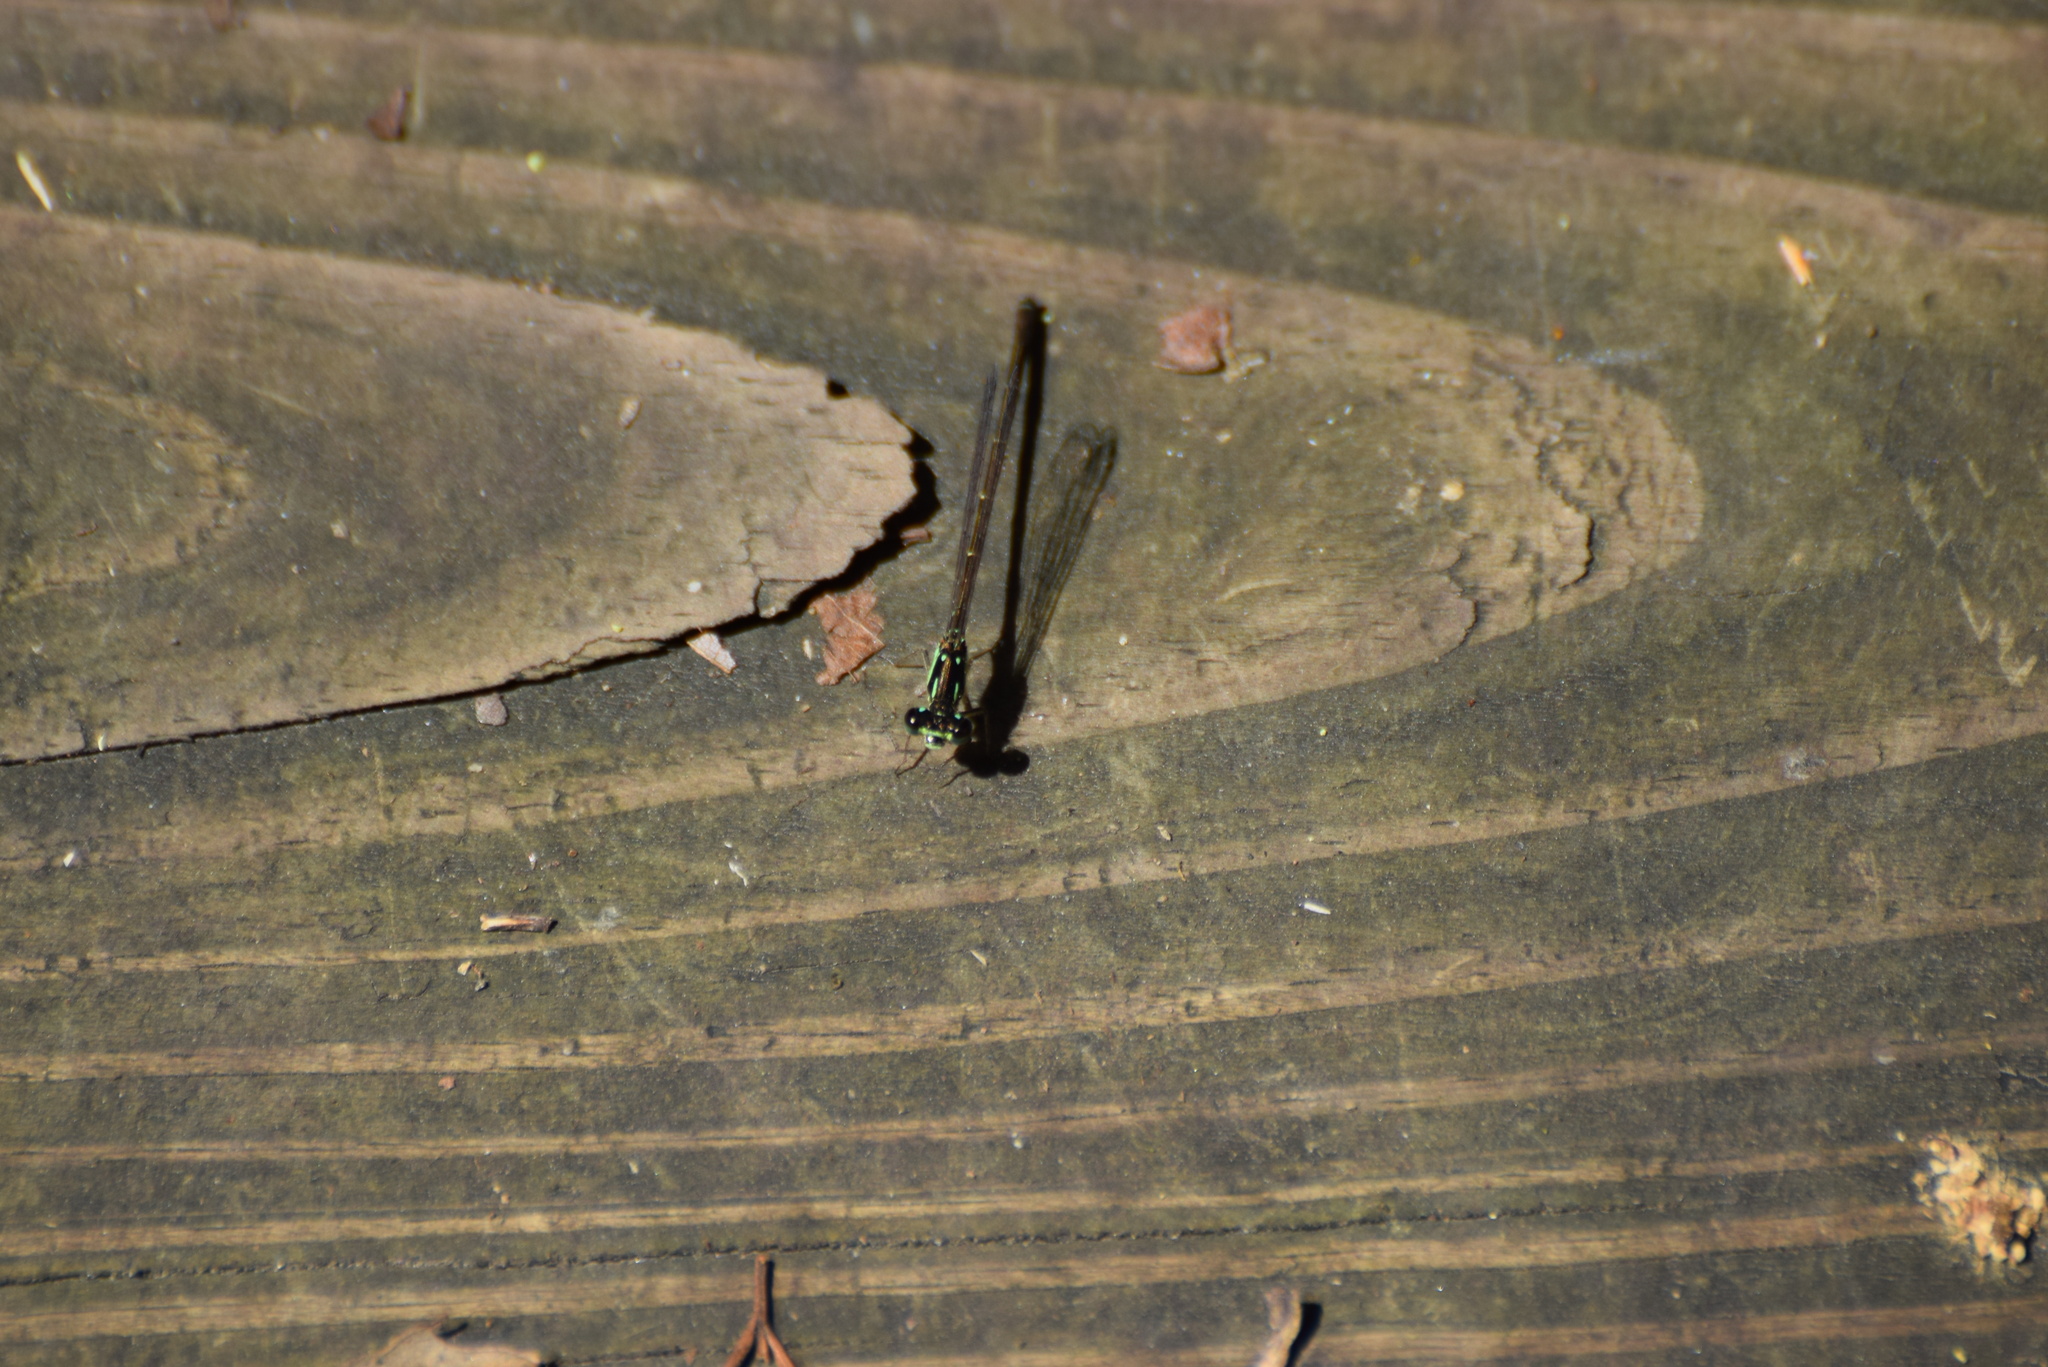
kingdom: Animalia
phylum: Arthropoda
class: Insecta
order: Odonata
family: Coenagrionidae
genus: Ischnura
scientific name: Ischnura posita
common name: Fragile forktail
